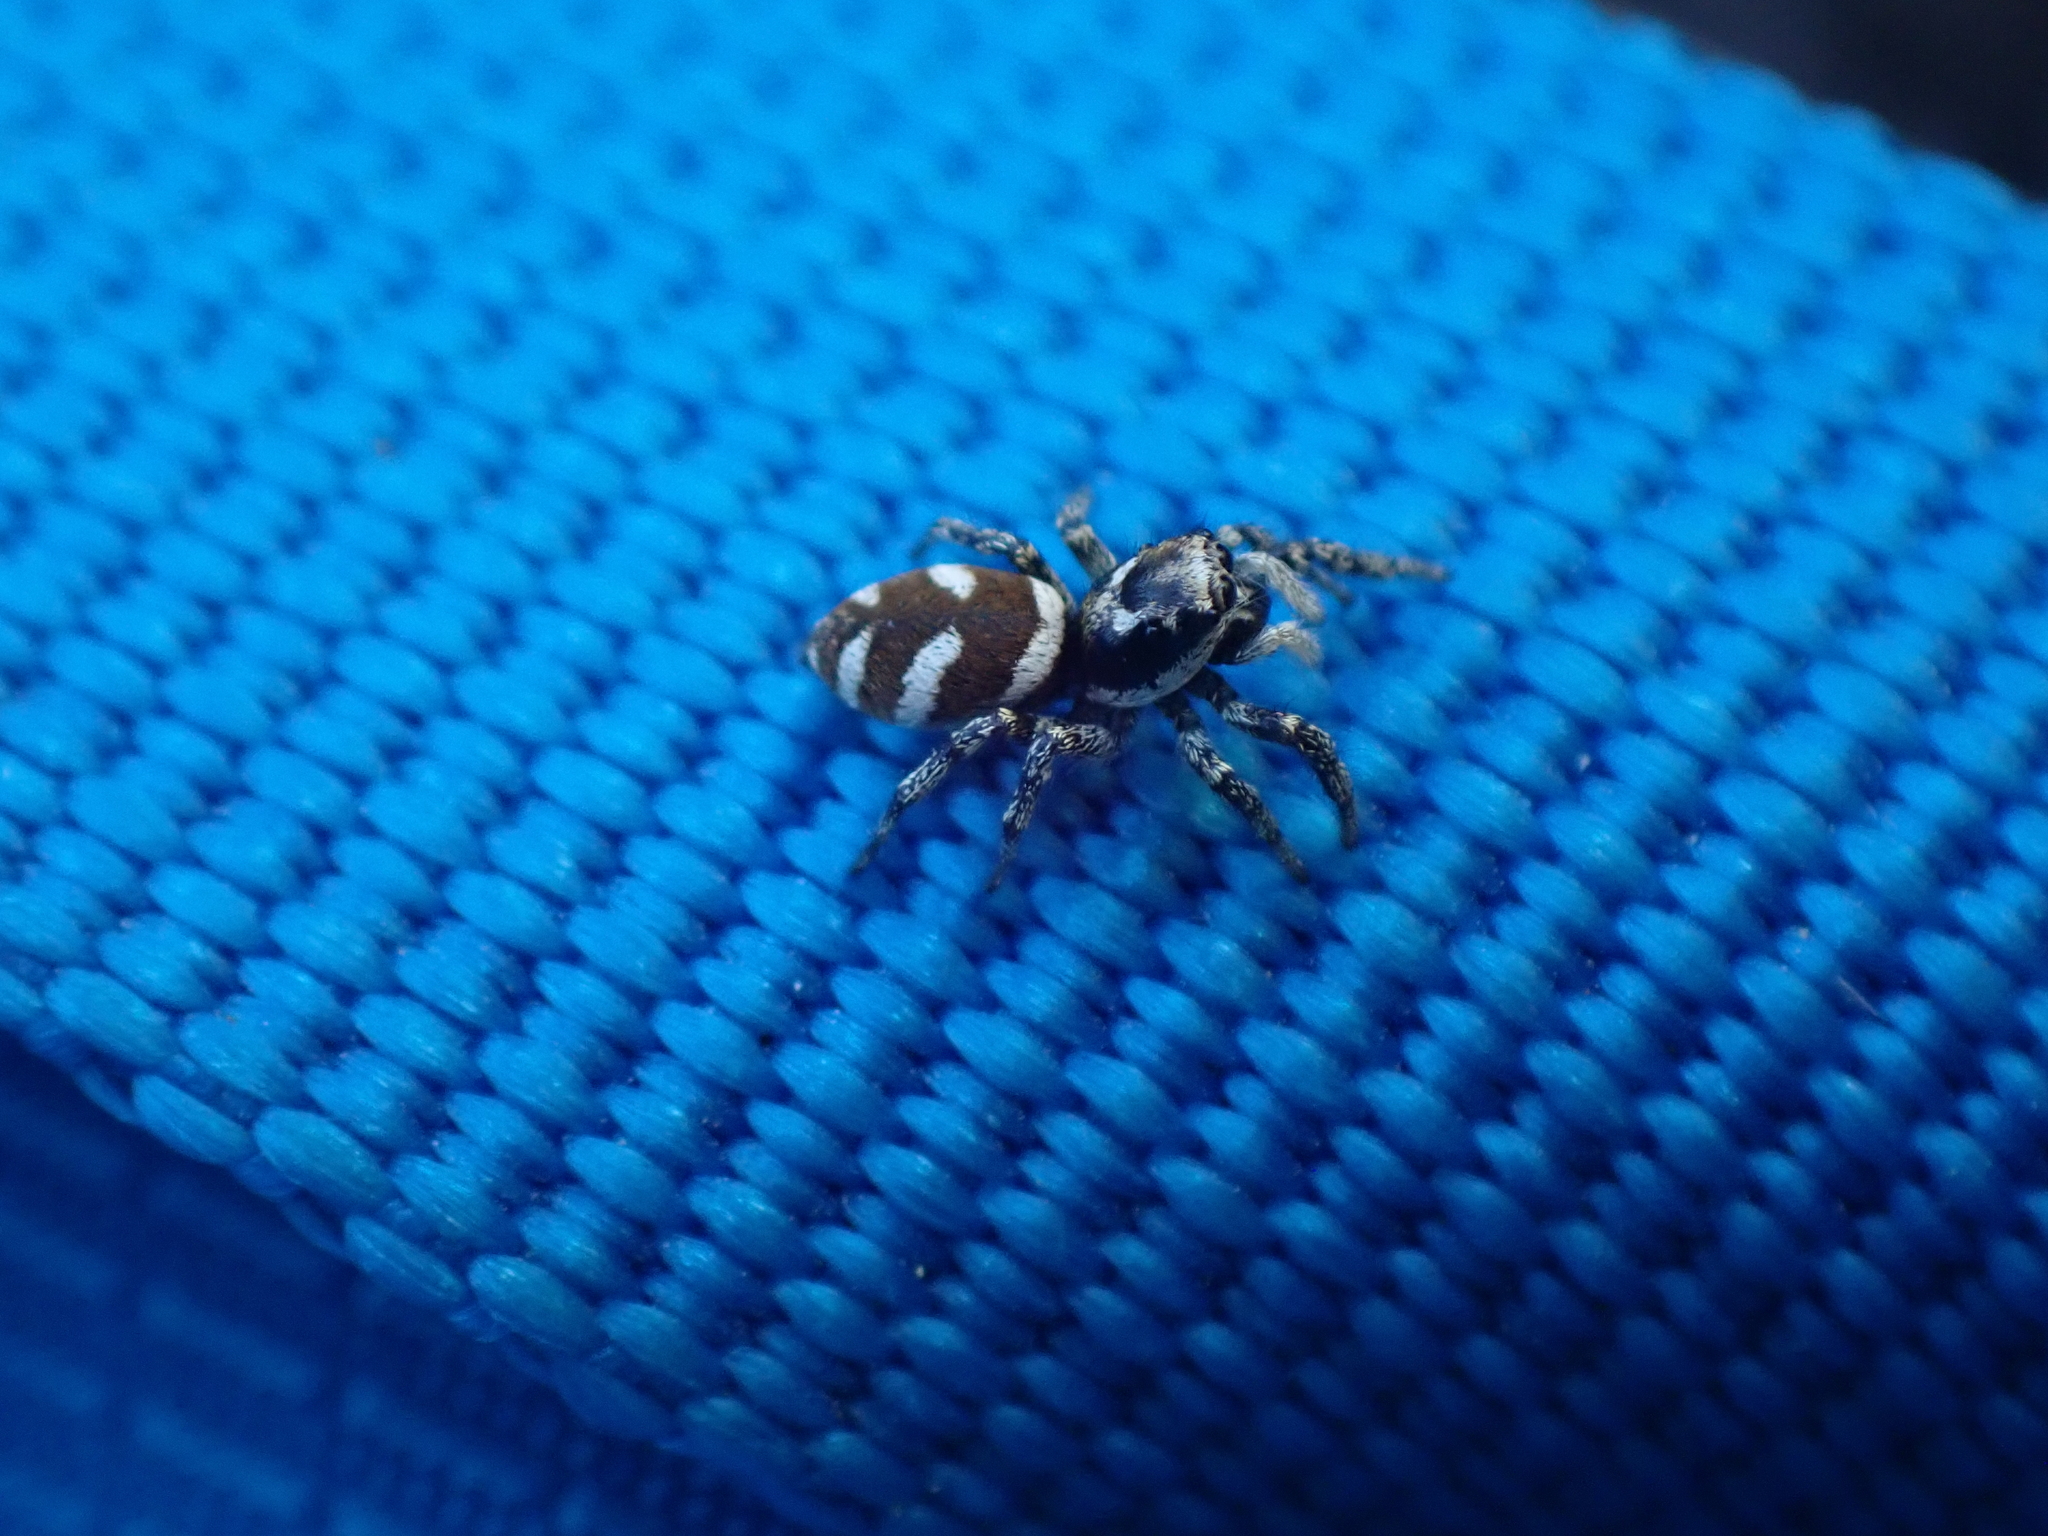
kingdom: Animalia
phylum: Arthropoda
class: Arachnida
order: Araneae
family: Salticidae
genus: Salticus
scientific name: Salticus scenicus
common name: Zebra jumper
